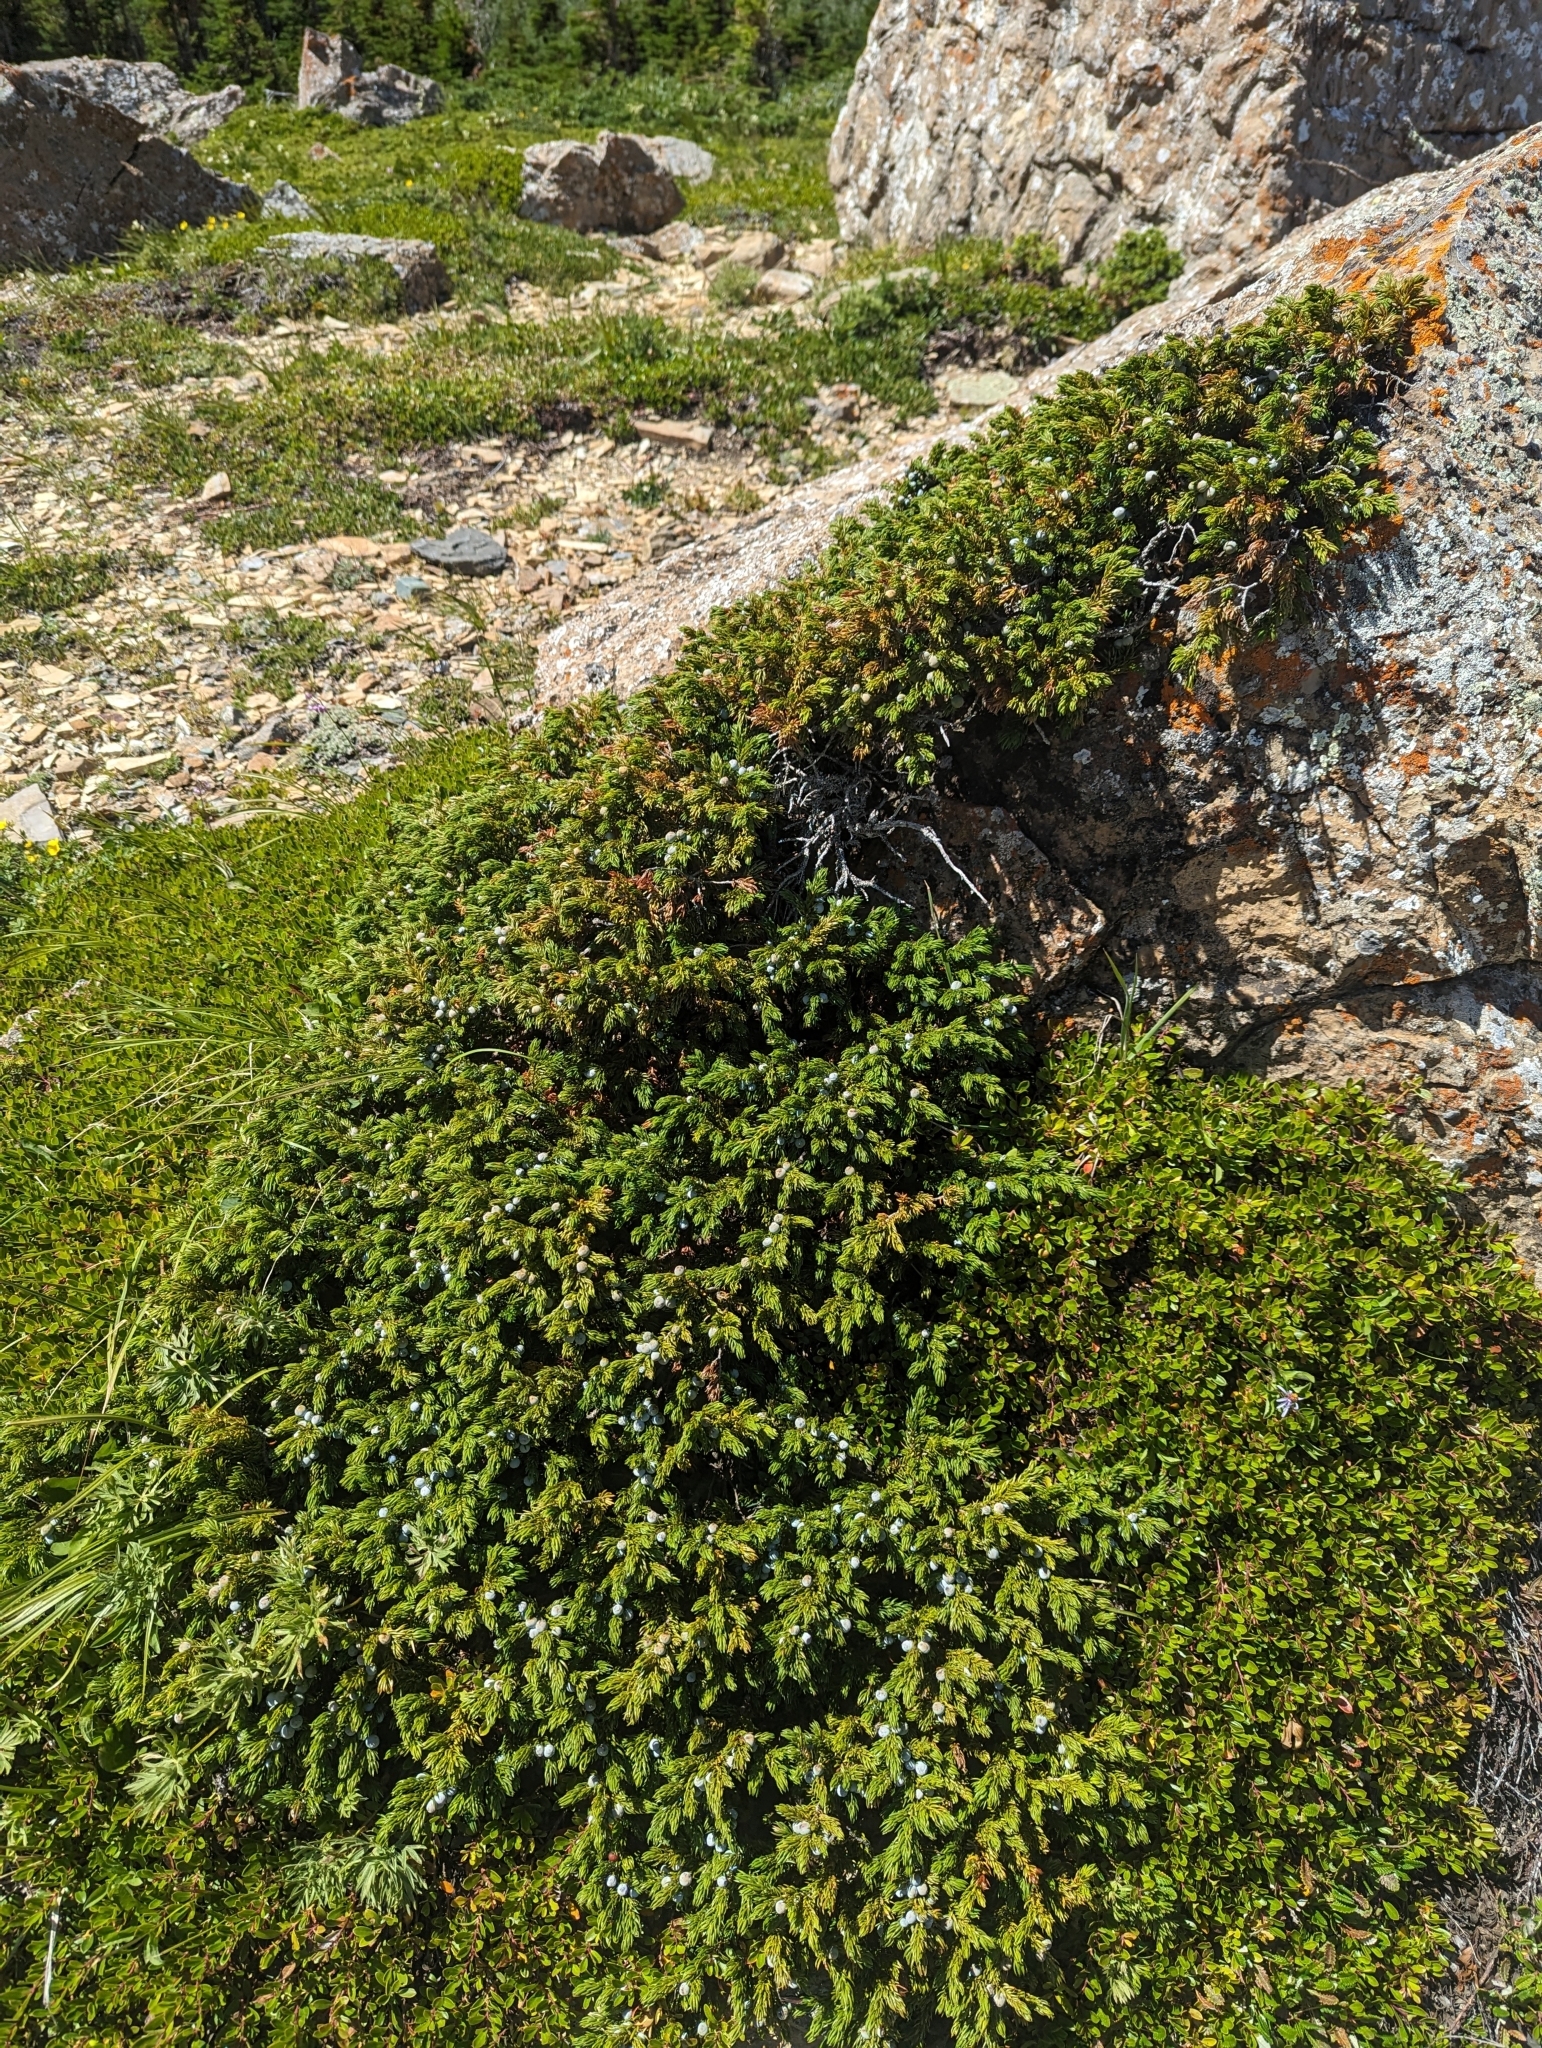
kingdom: Plantae
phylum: Tracheophyta
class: Pinopsida
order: Pinales
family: Cupressaceae
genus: Juniperus
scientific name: Juniperus communis
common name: Common juniper
